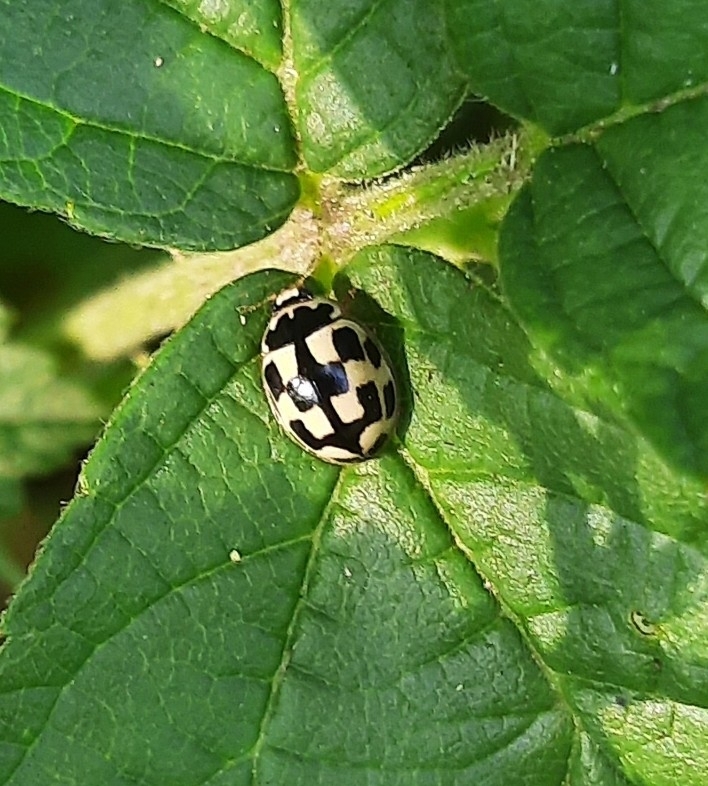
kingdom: Animalia
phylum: Arthropoda
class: Insecta
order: Coleoptera
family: Coccinellidae
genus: Propylaea
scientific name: Propylaea quatuordecimpunctata
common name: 14-spotted ladybird beetle
